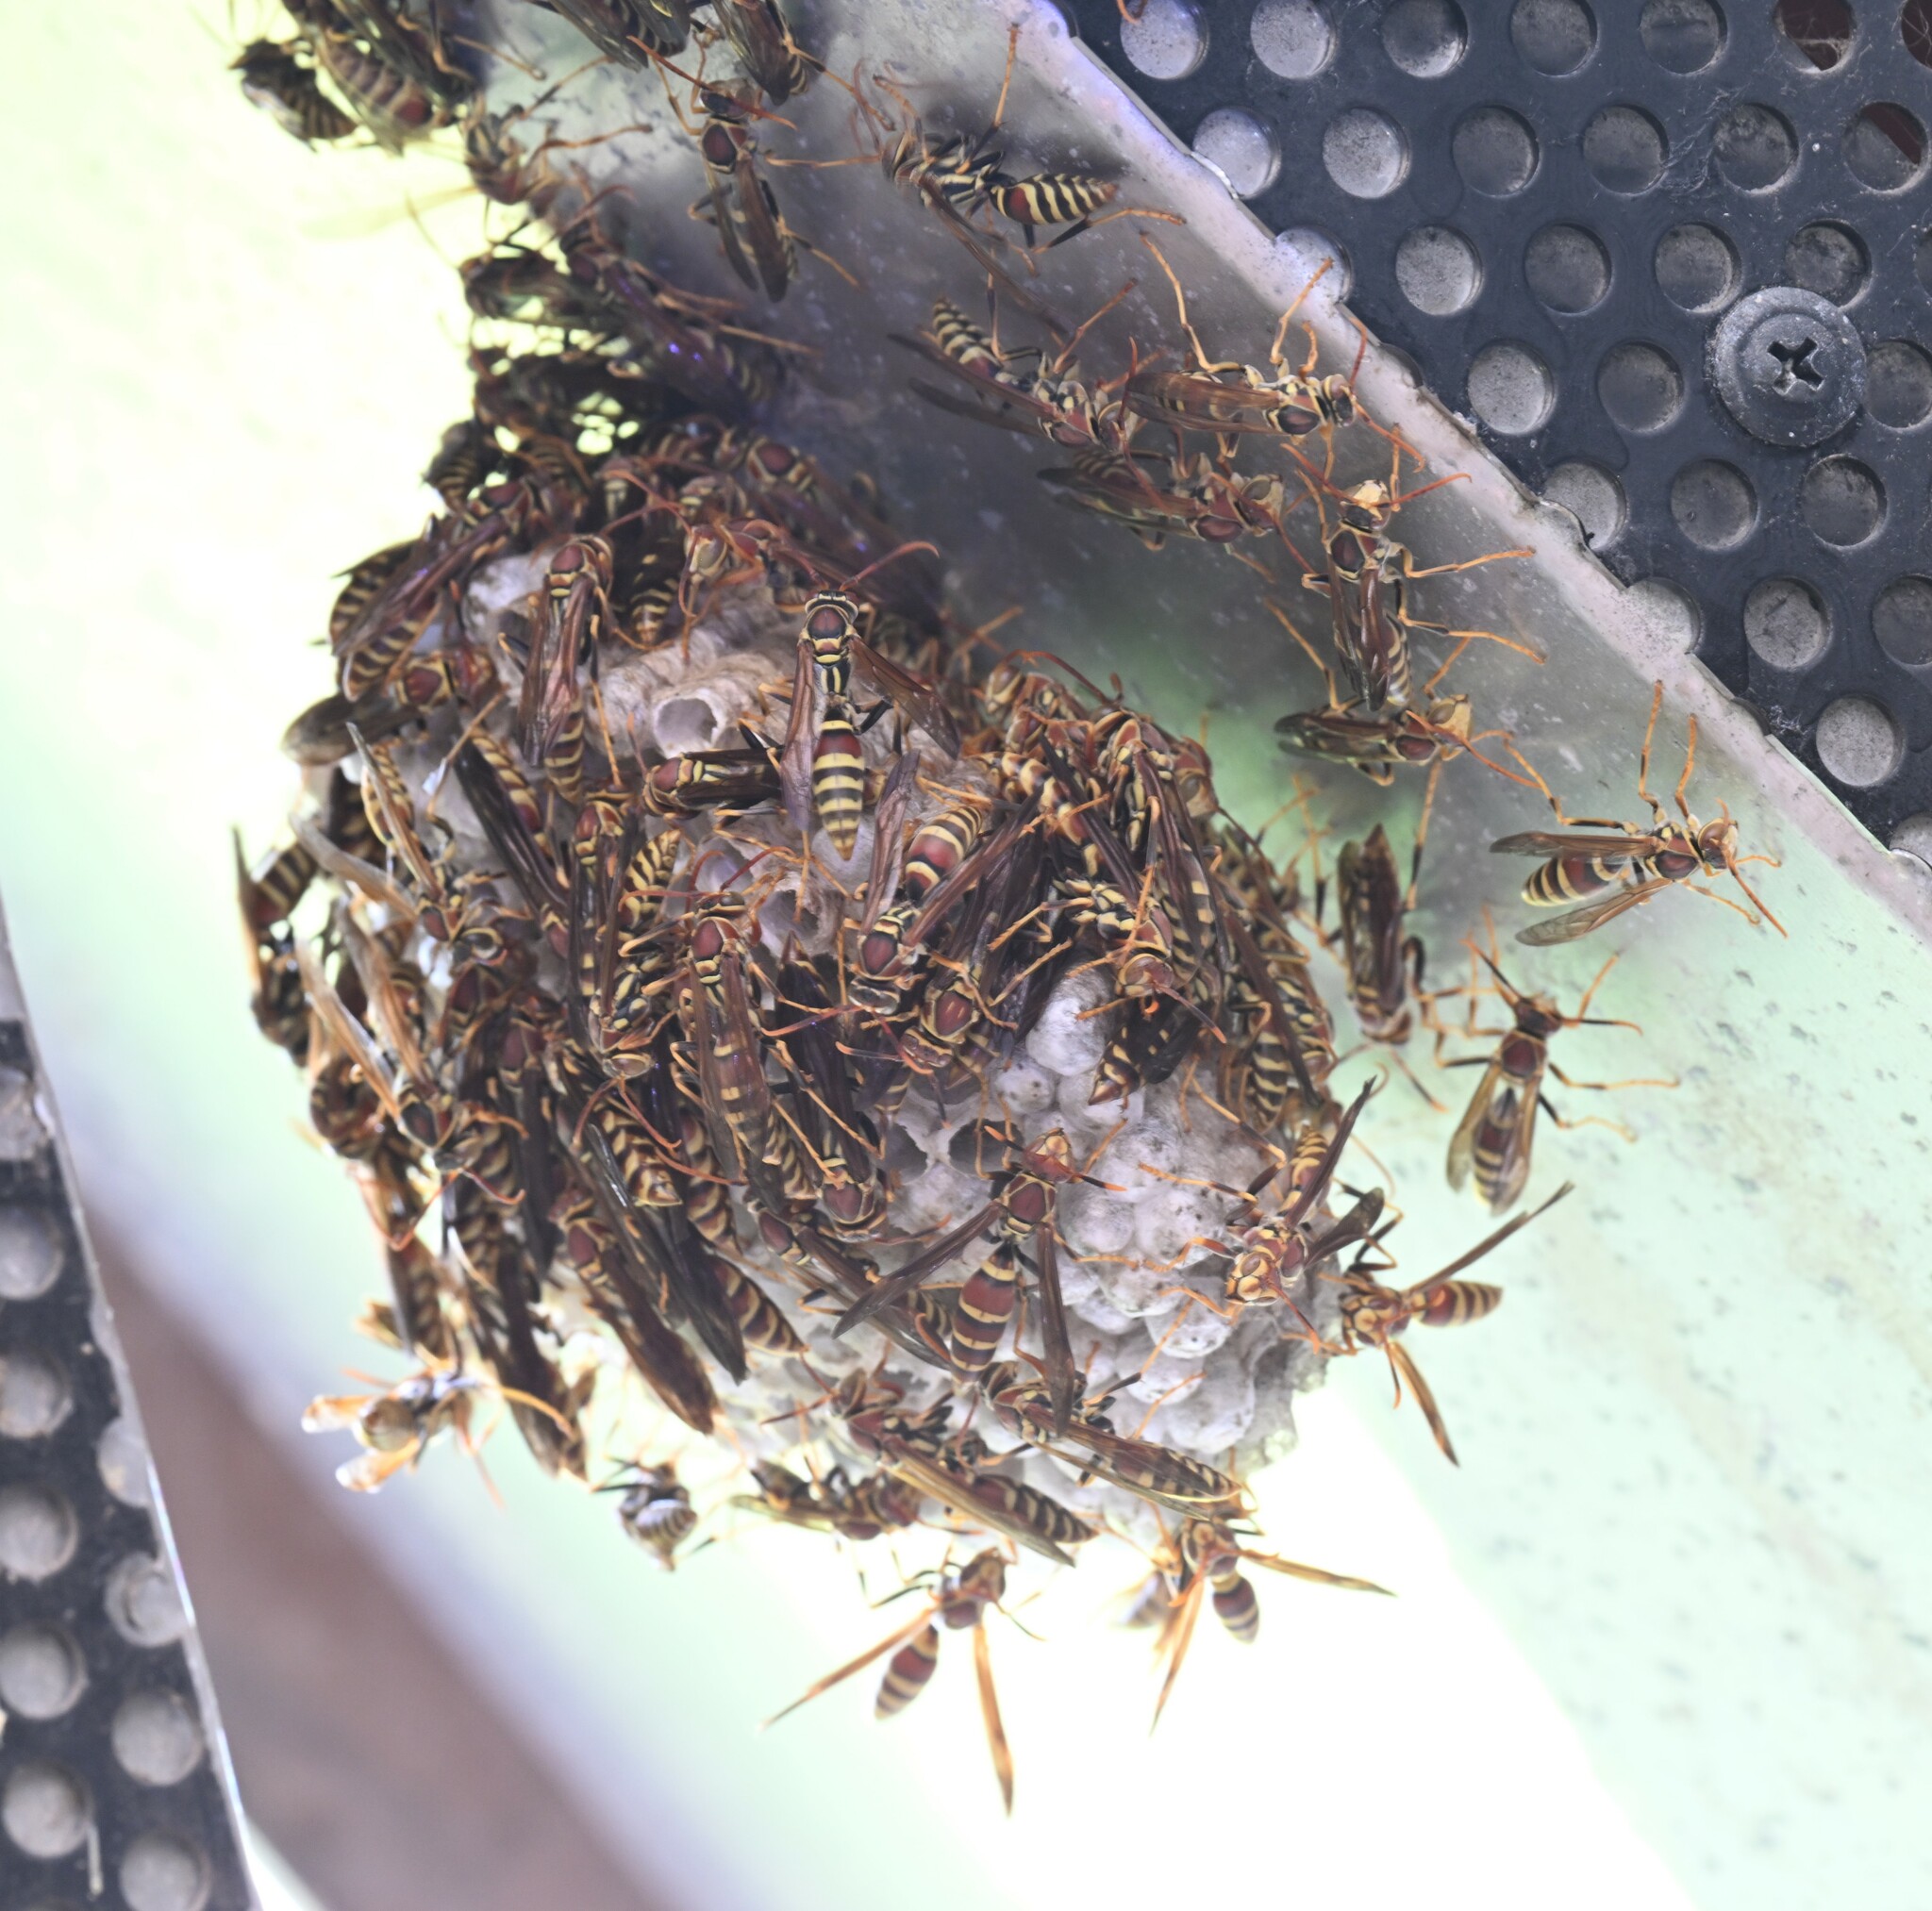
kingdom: Animalia
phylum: Arthropoda
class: Insecta
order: Hymenoptera
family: Eumenidae
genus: Polistes
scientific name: Polistes exclamans
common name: Paper wasp
